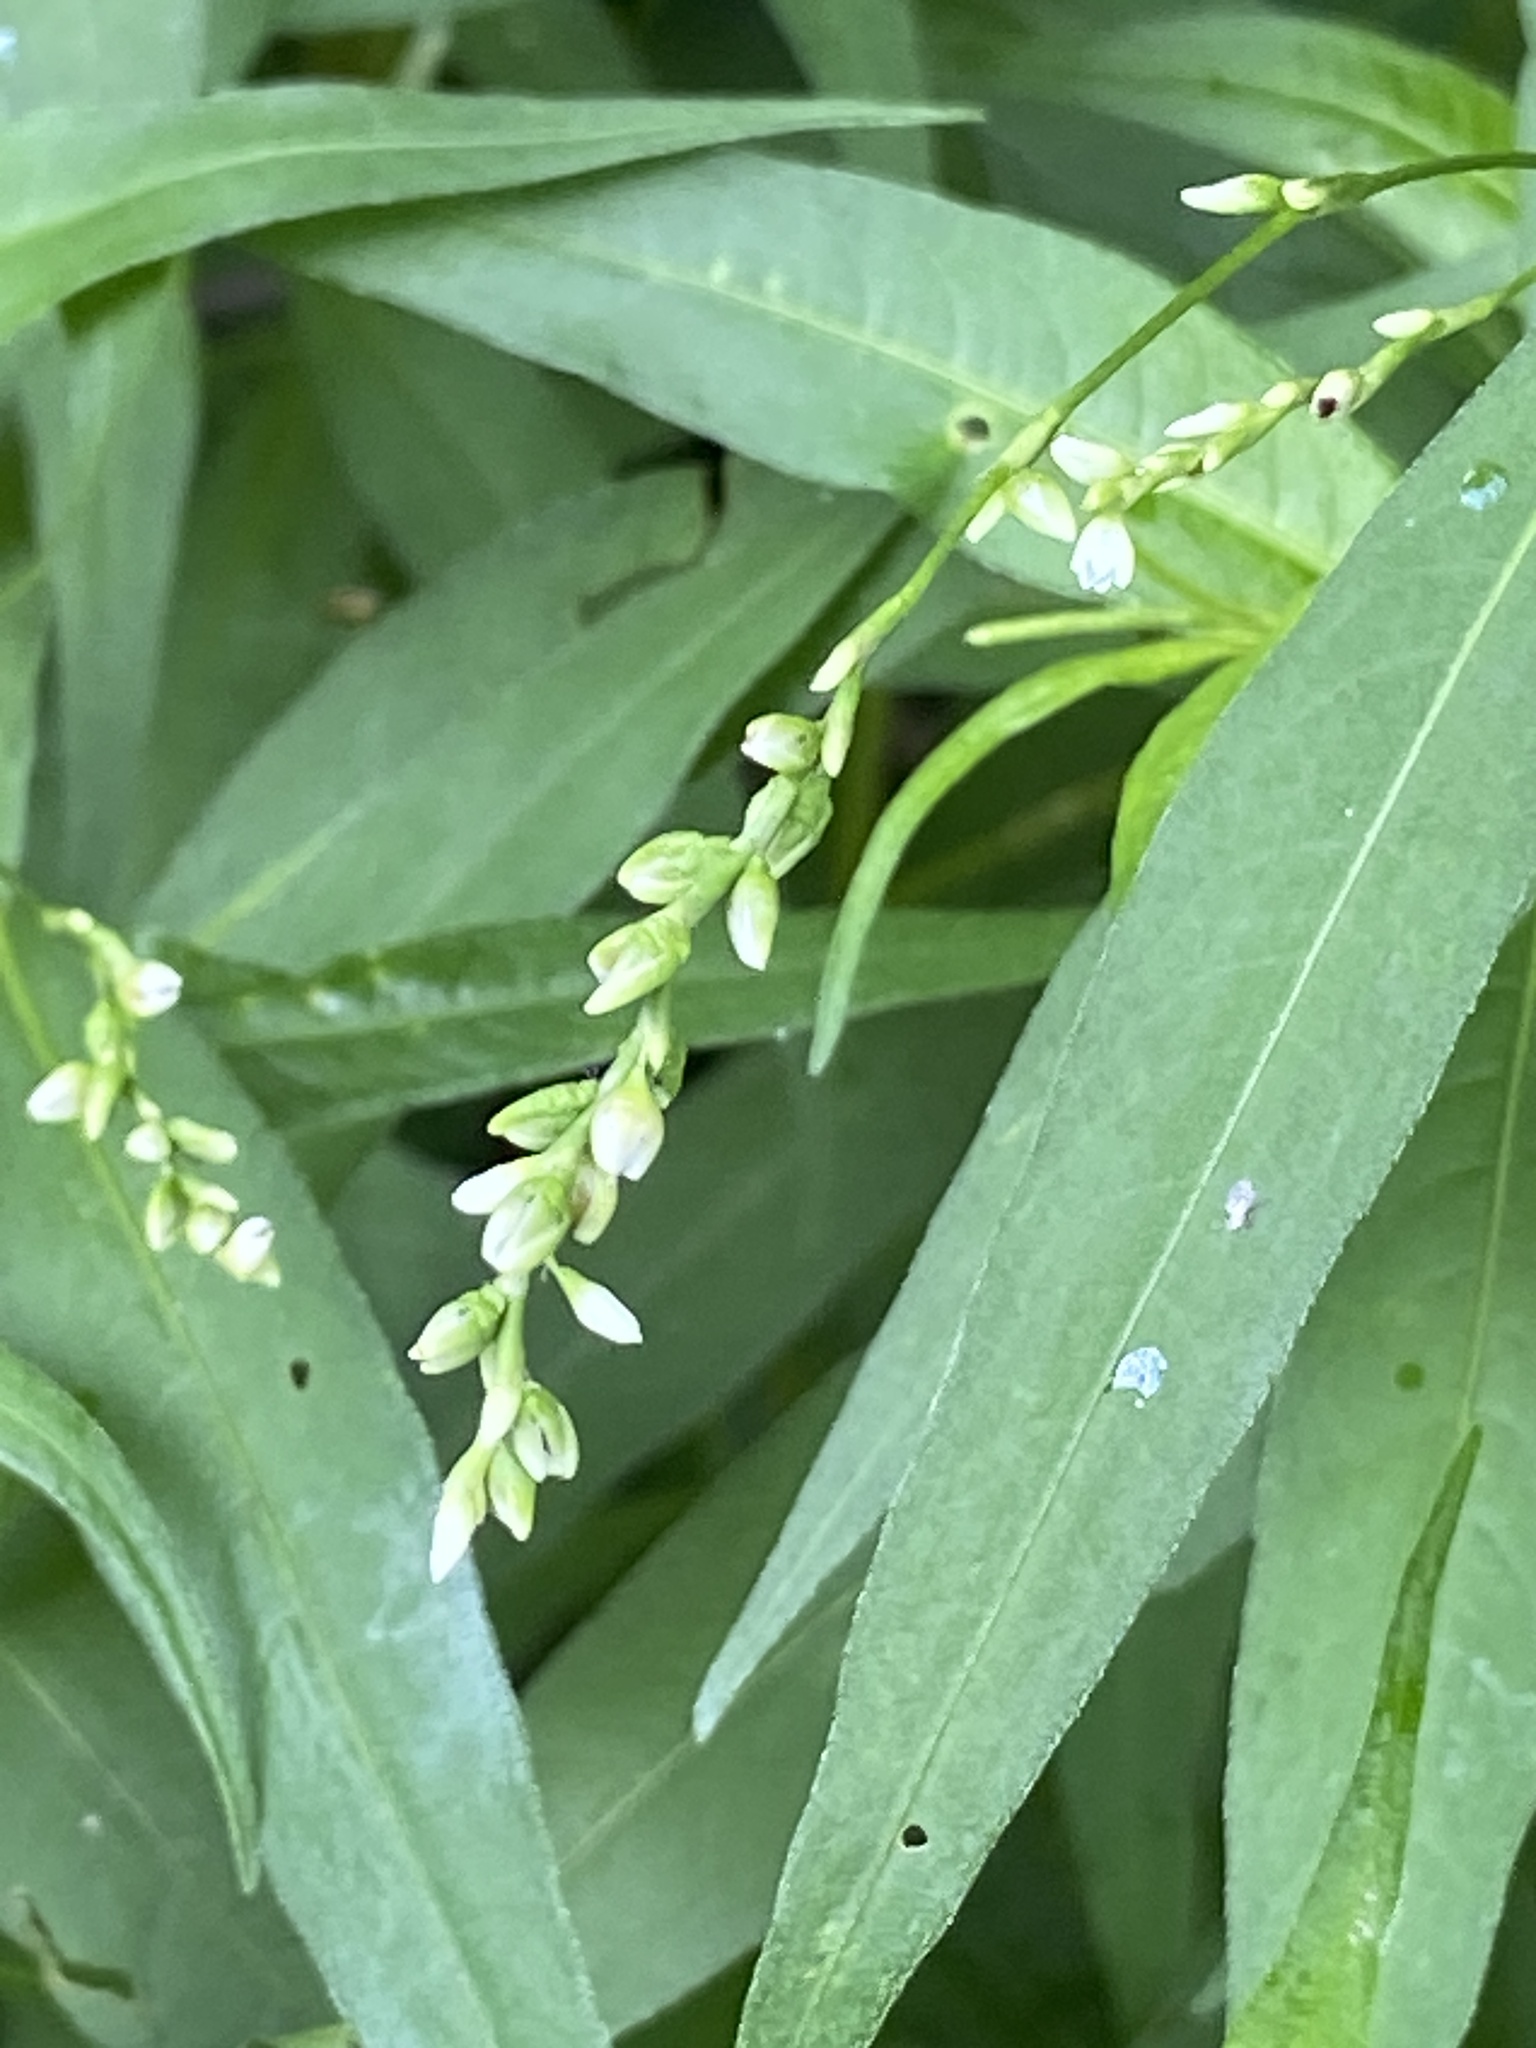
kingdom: Plantae
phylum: Tracheophyta
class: Magnoliopsida
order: Caryophyllales
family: Polygonaceae
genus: Persicaria
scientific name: Persicaria punctata
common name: Dotted smartweed
